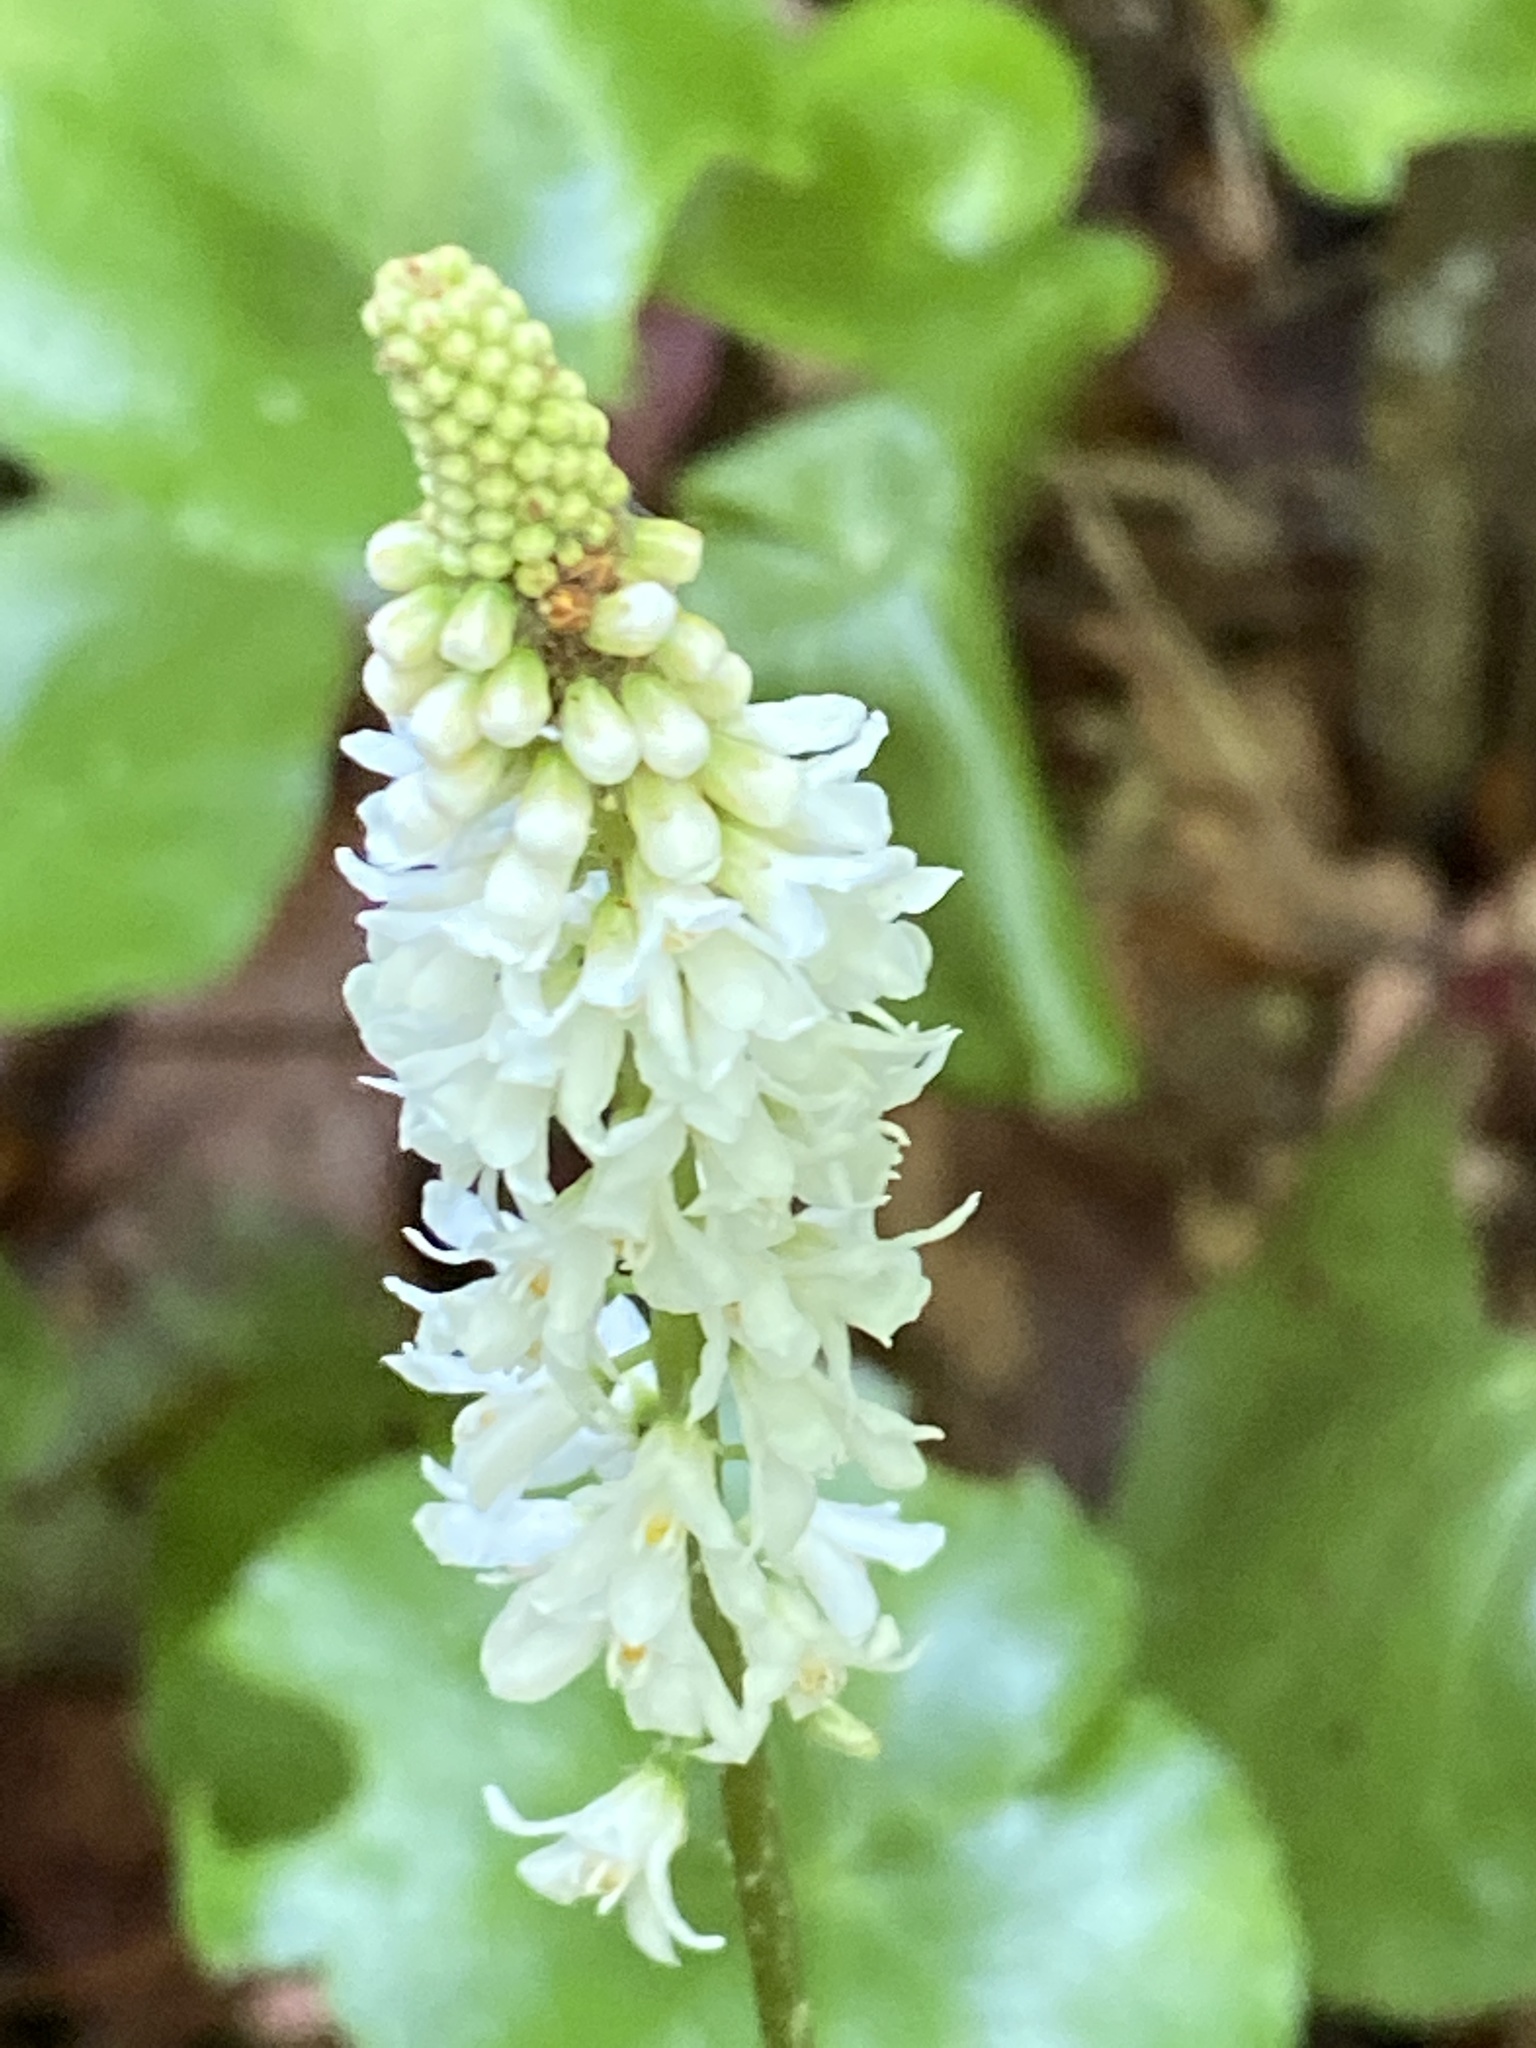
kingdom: Plantae
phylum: Tracheophyta
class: Magnoliopsida
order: Ericales
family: Diapensiaceae
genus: Galax
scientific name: Galax urceolata
